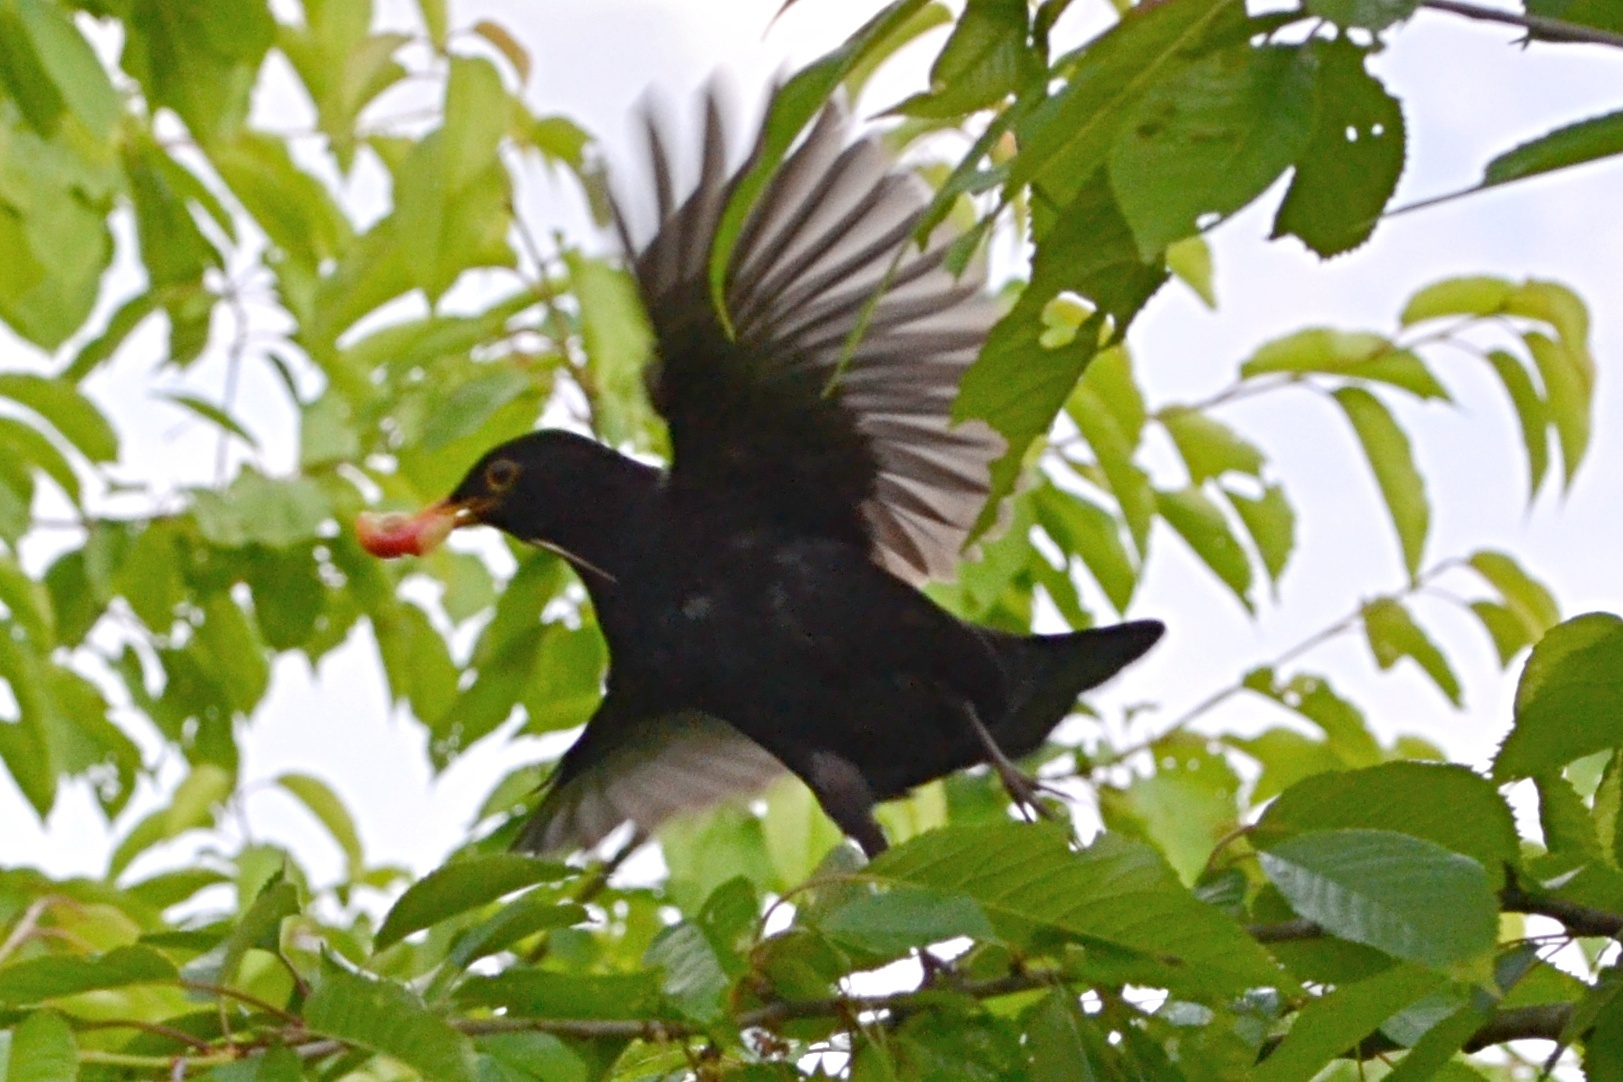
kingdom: Animalia
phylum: Chordata
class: Aves
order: Passeriformes
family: Turdidae
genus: Turdus
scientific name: Turdus merula
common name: Common blackbird
